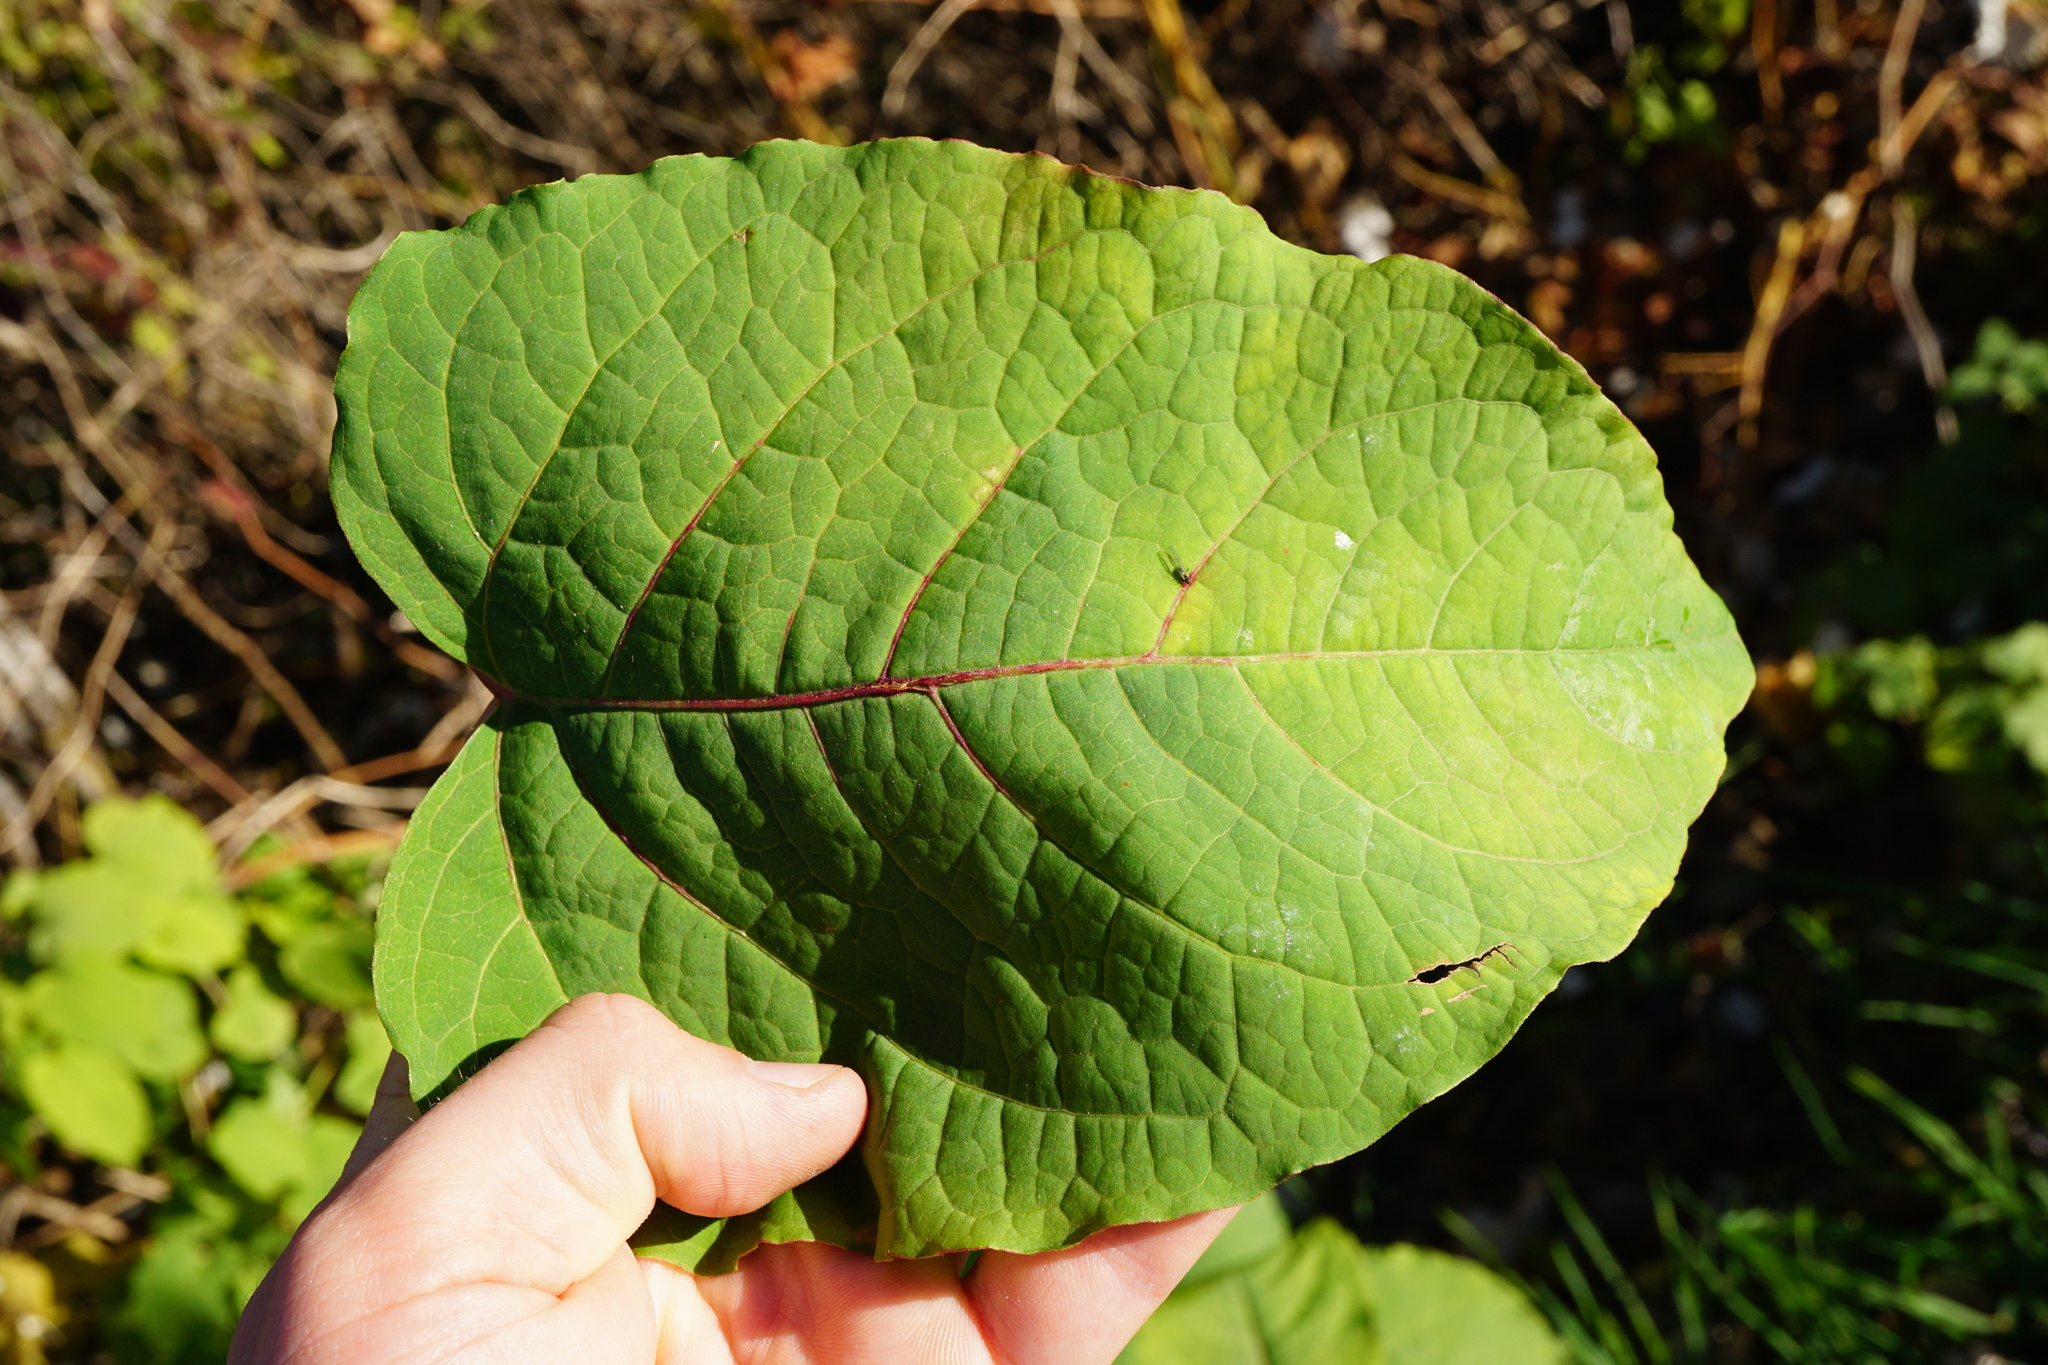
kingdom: Plantae
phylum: Tracheophyta
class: Magnoliopsida
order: Caryophyllales
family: Polygonaceae
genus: Reynoutria
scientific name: Reynoutria bohemica
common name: Bohemian knotweed
